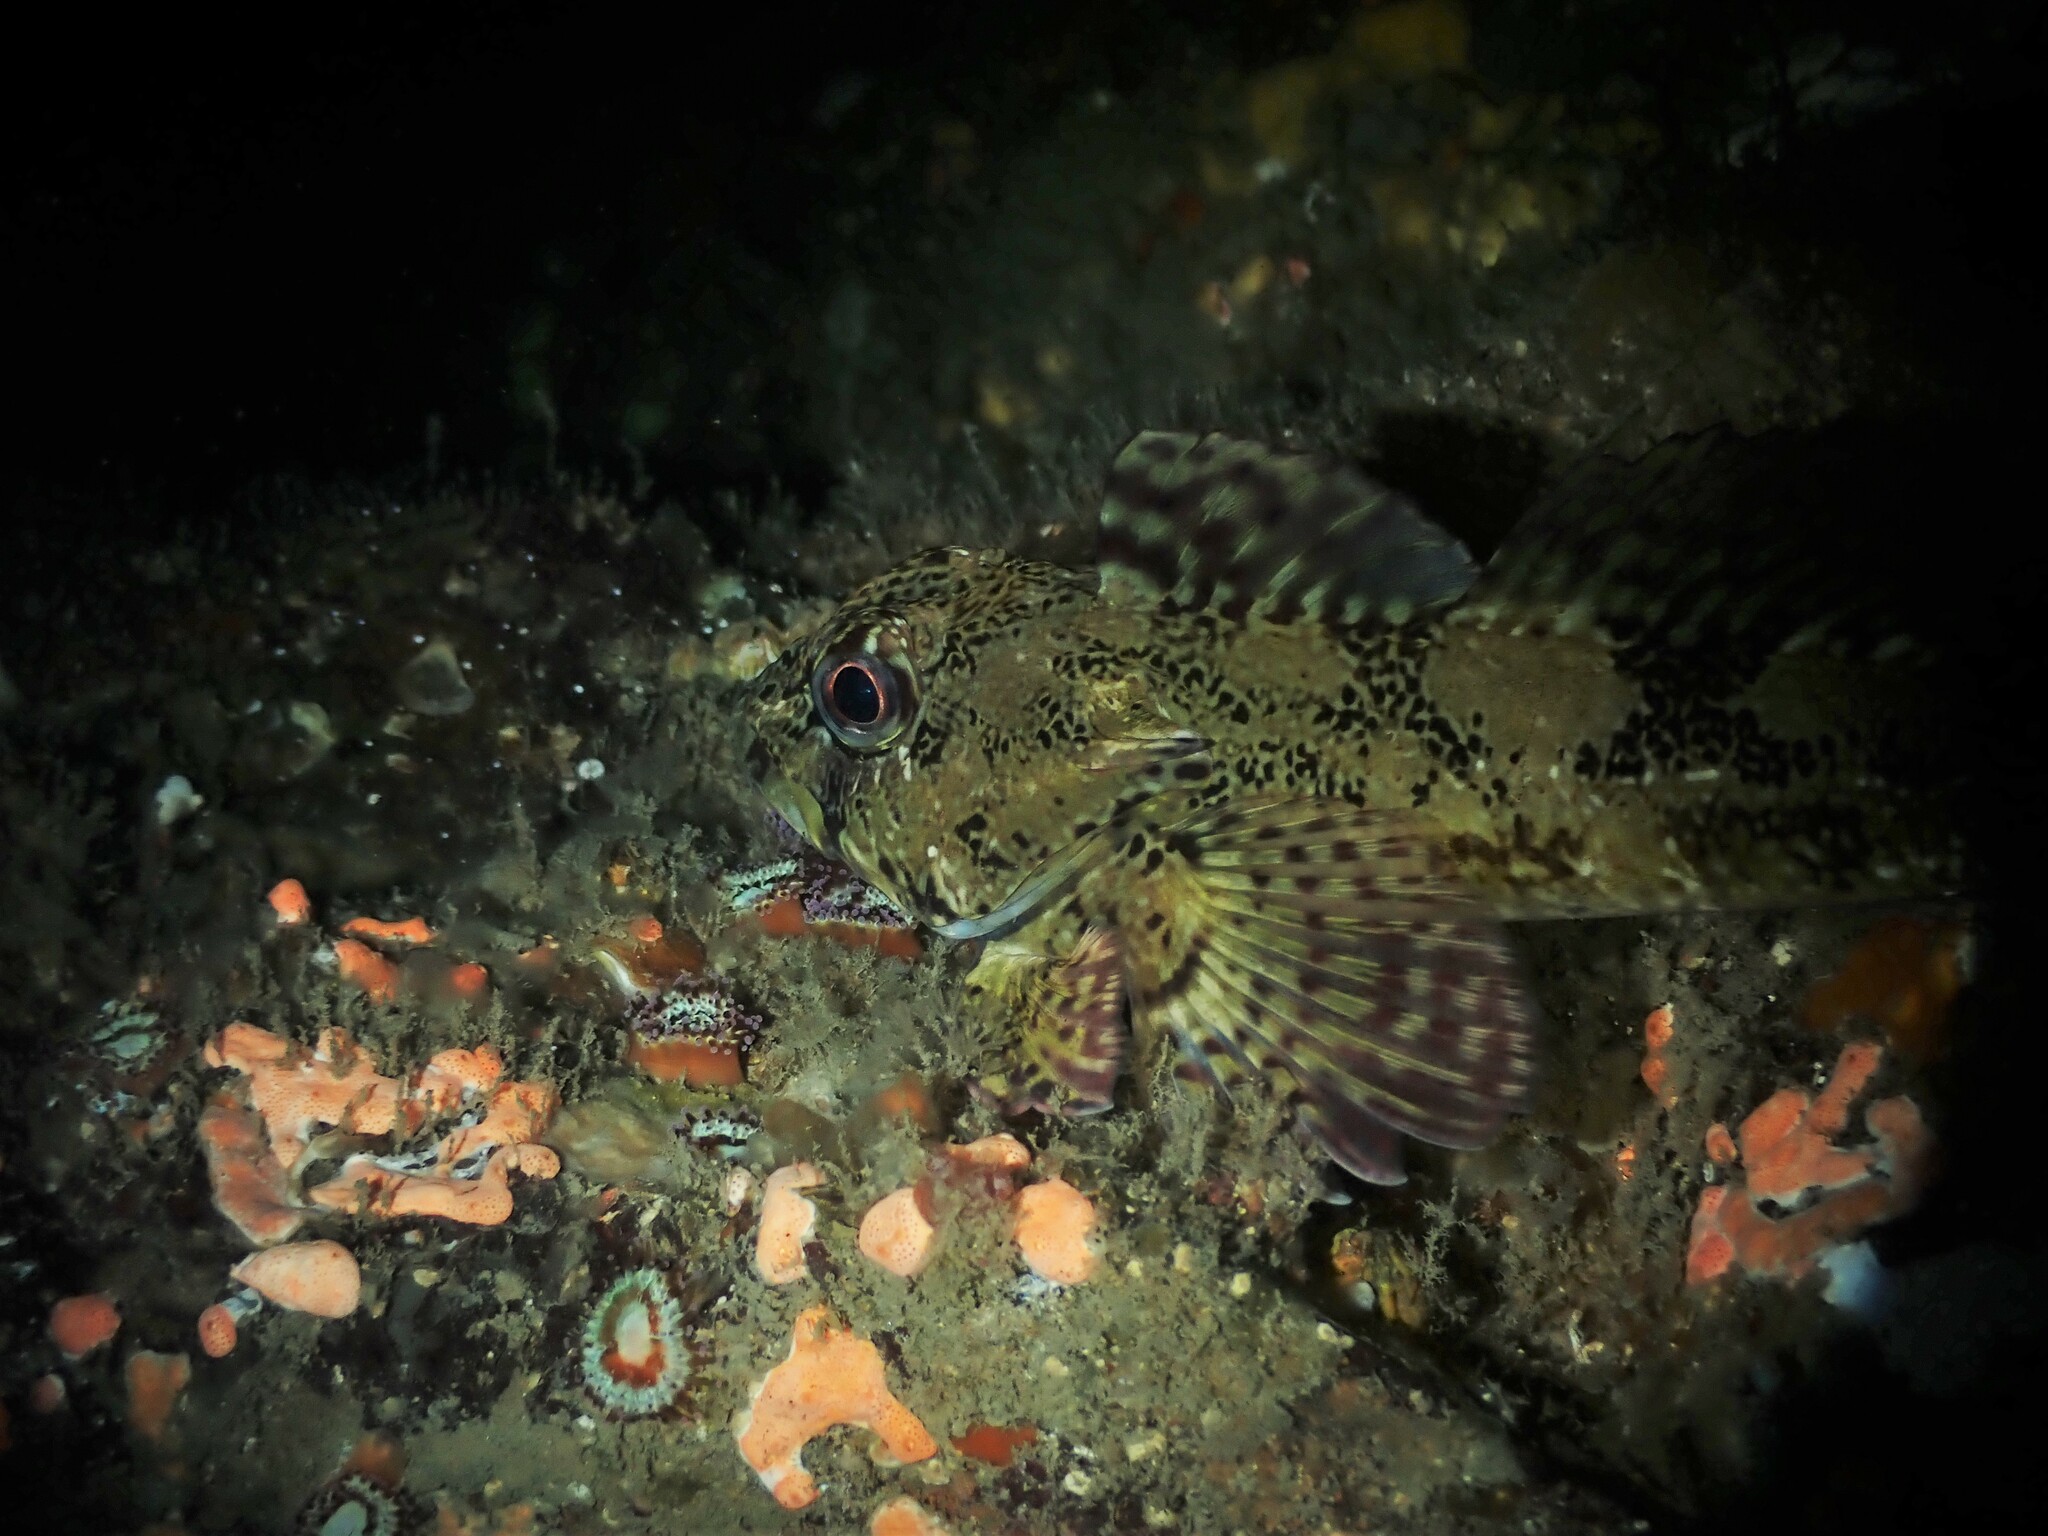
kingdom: Animalia
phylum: Chordata
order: Perciformes
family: Bovichtidae
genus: Bovichtus
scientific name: Bovichtus variegatus
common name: Thornfish
